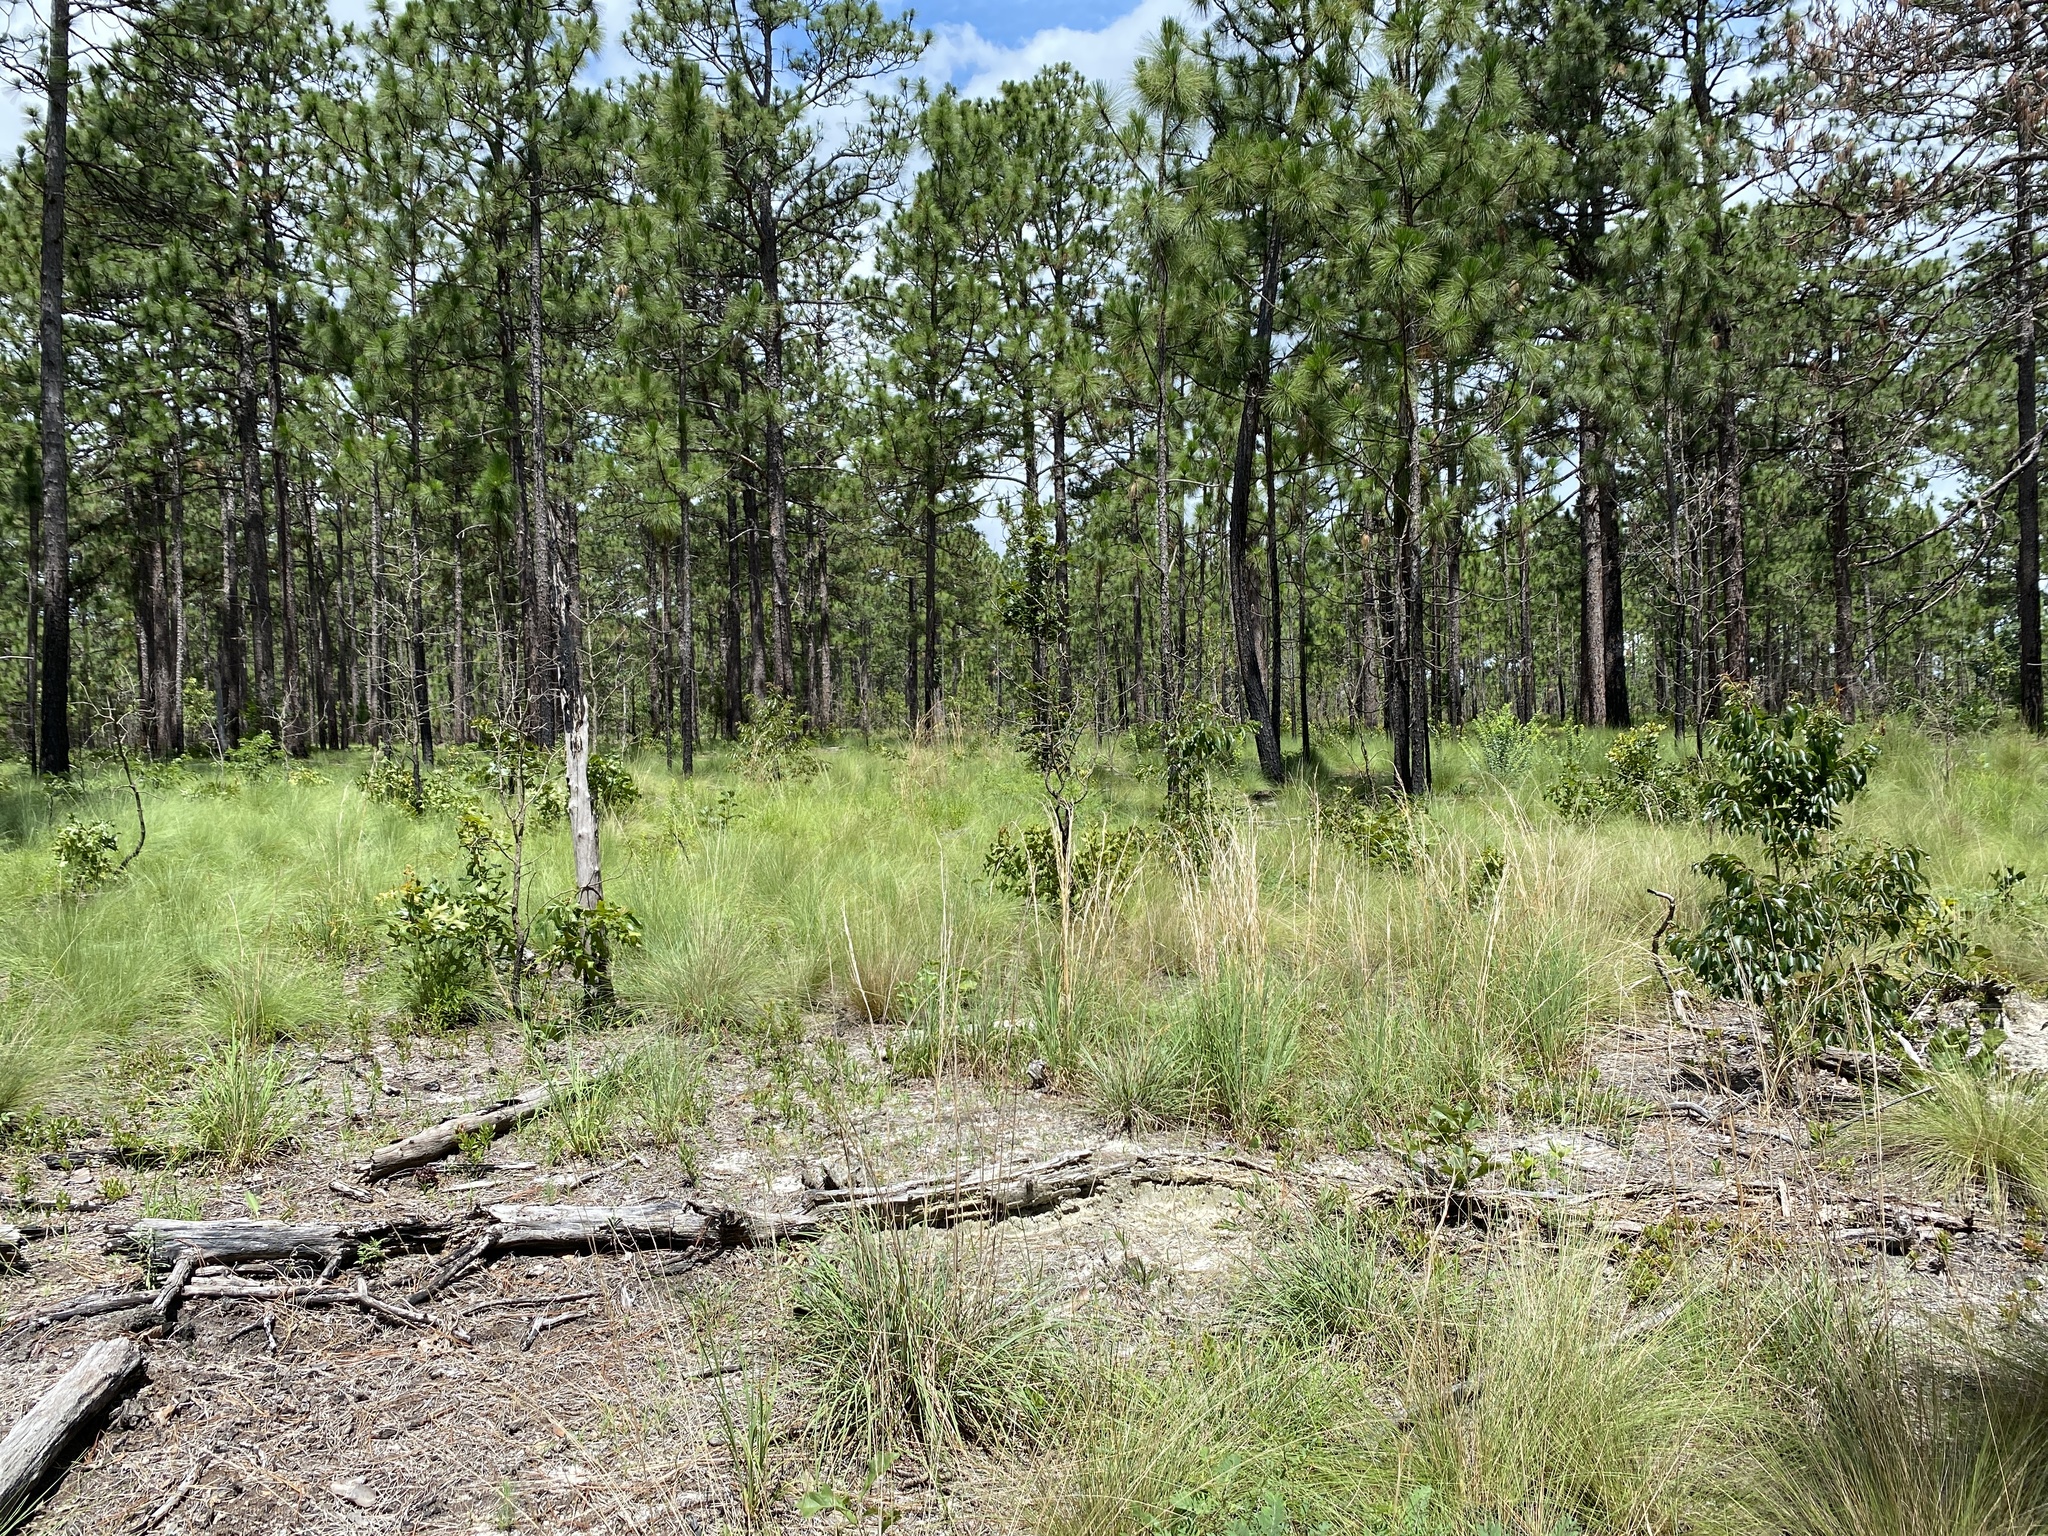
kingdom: Plantae
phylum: Tracheophyta
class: Liliopsida
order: Poales
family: Poaceae
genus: Aristida
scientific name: Aristida stricta
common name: Pineland three-awn
